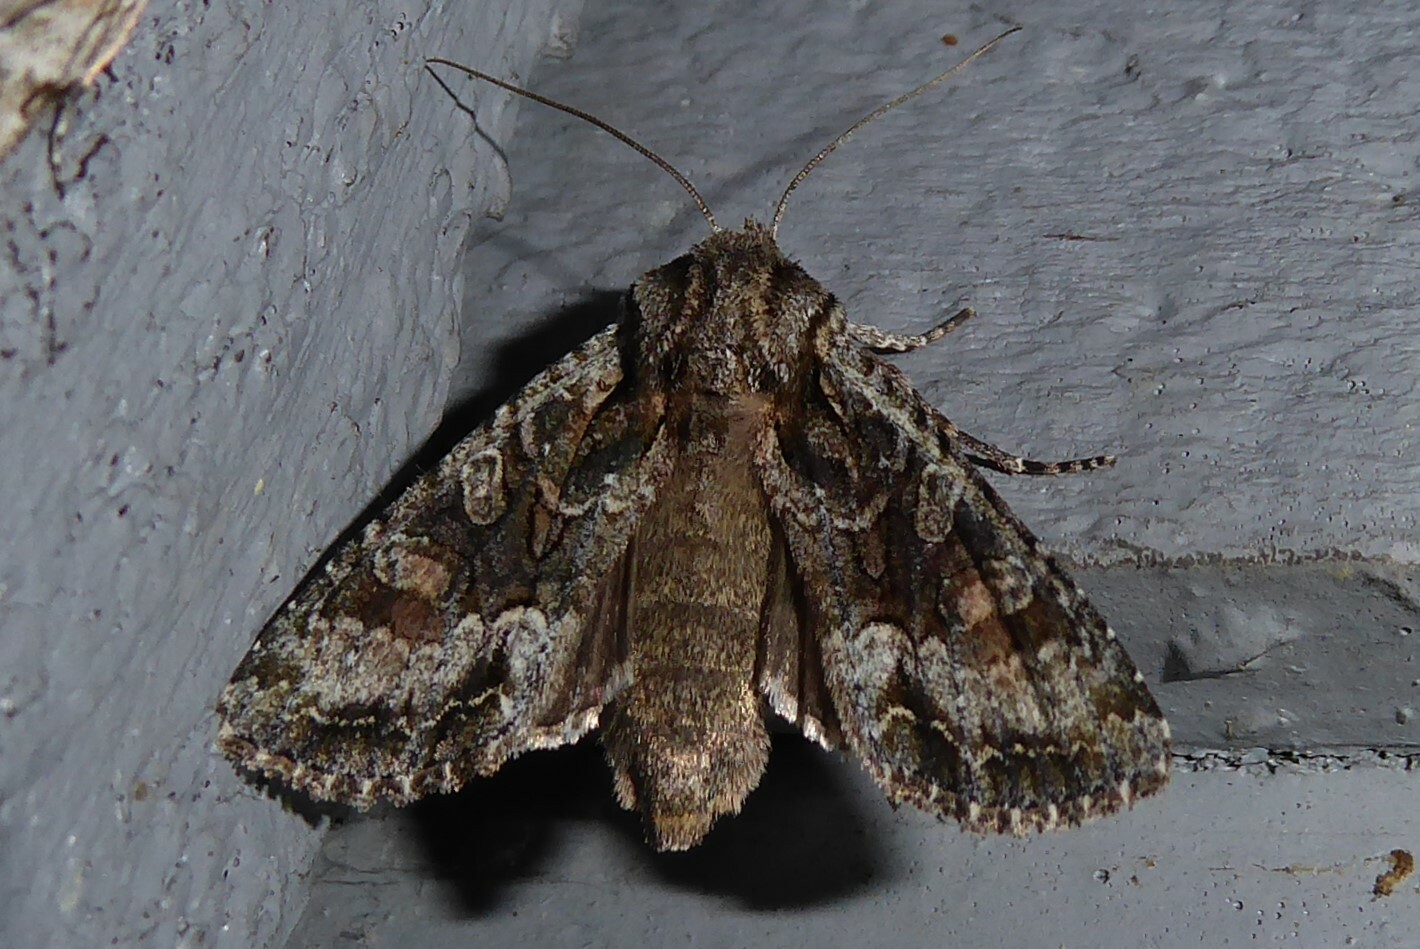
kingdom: Animalia
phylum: Arthropoda
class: Insecta
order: Lepidoptera
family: Noctuidae
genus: Ichneutica
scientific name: Ichneutica mutans
